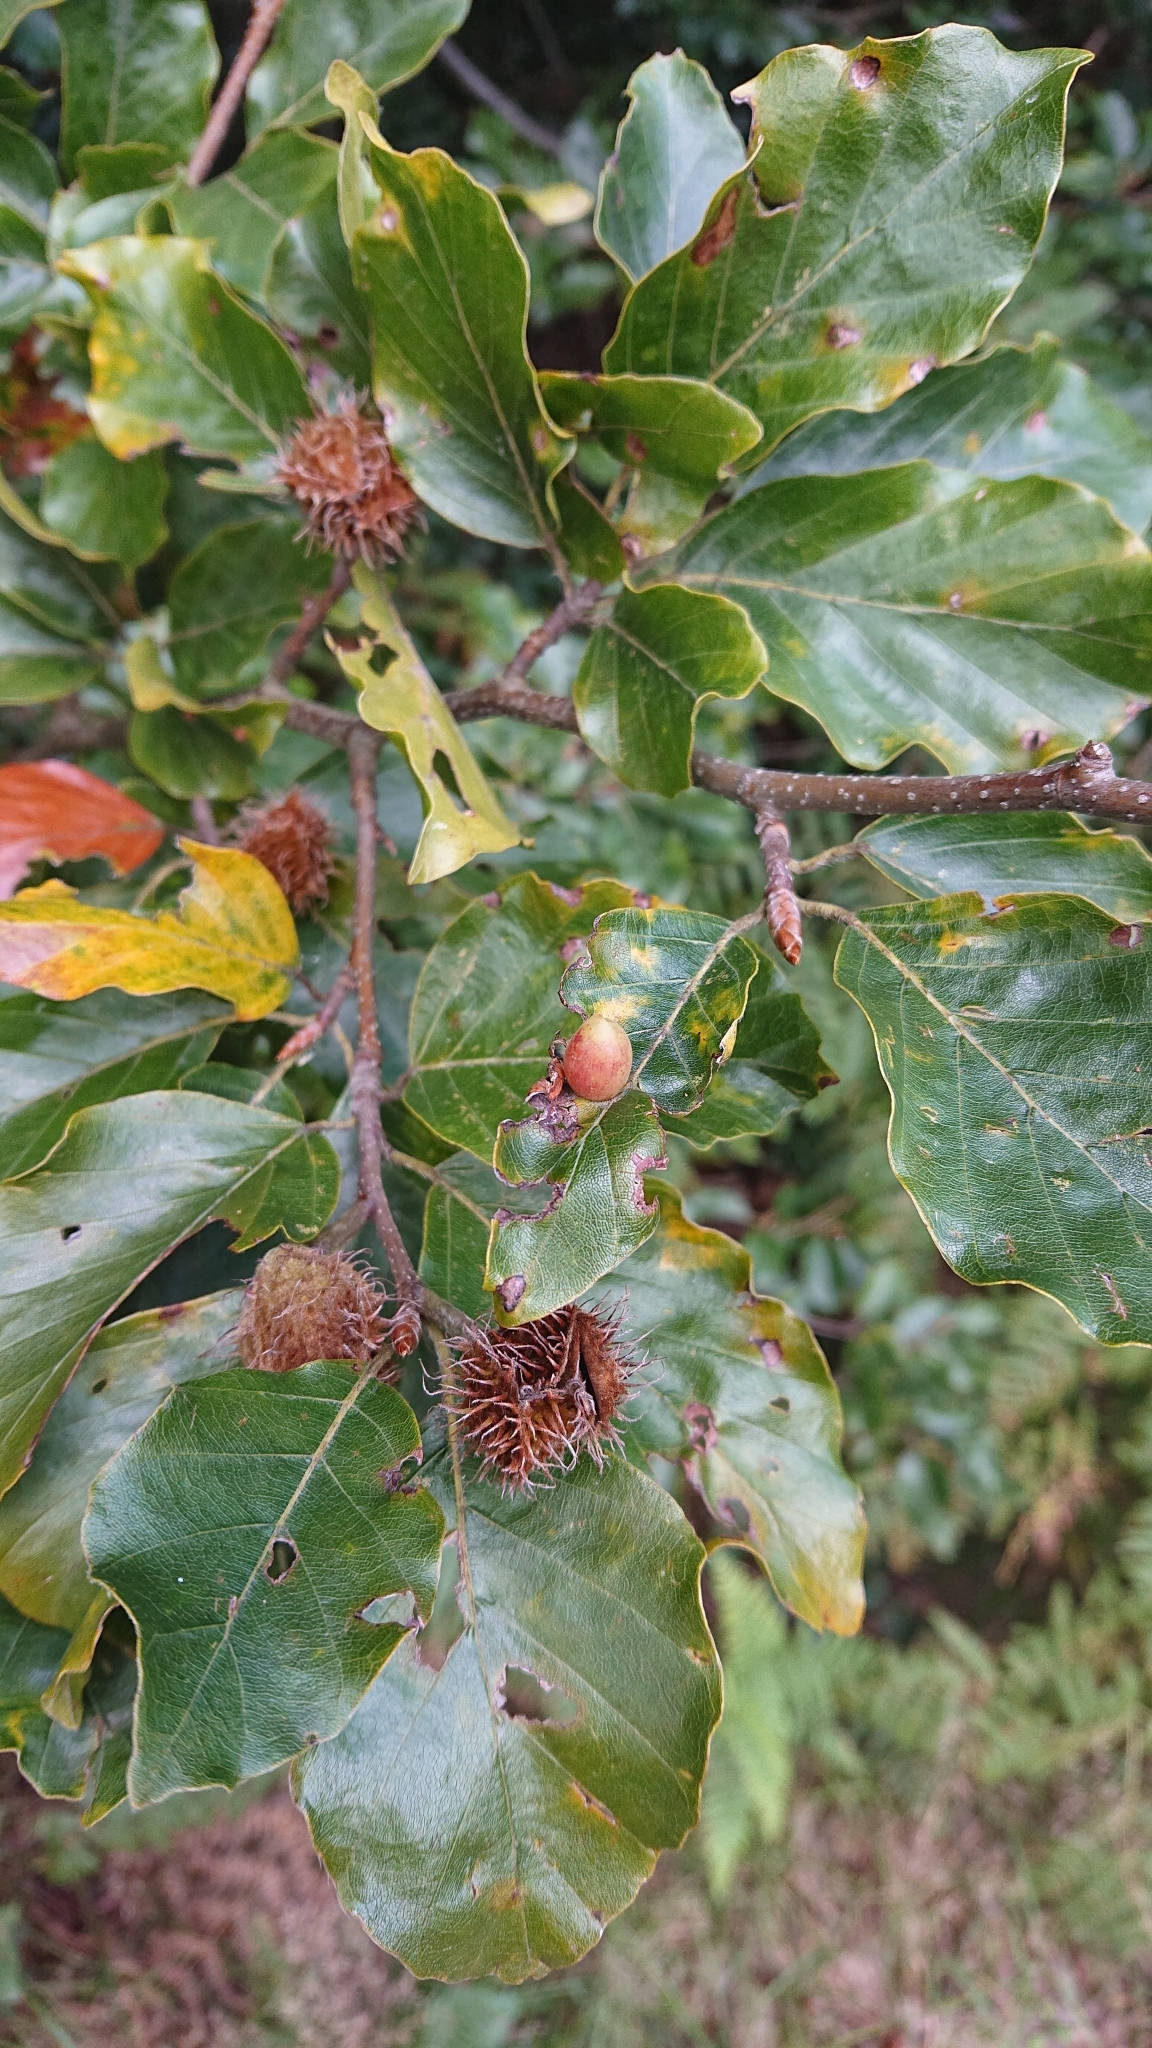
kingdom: Animalia
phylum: Arthropoda
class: Insecta
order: Diptera
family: Cecidomyiidae
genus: Mikiola
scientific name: Mikiola fagi
